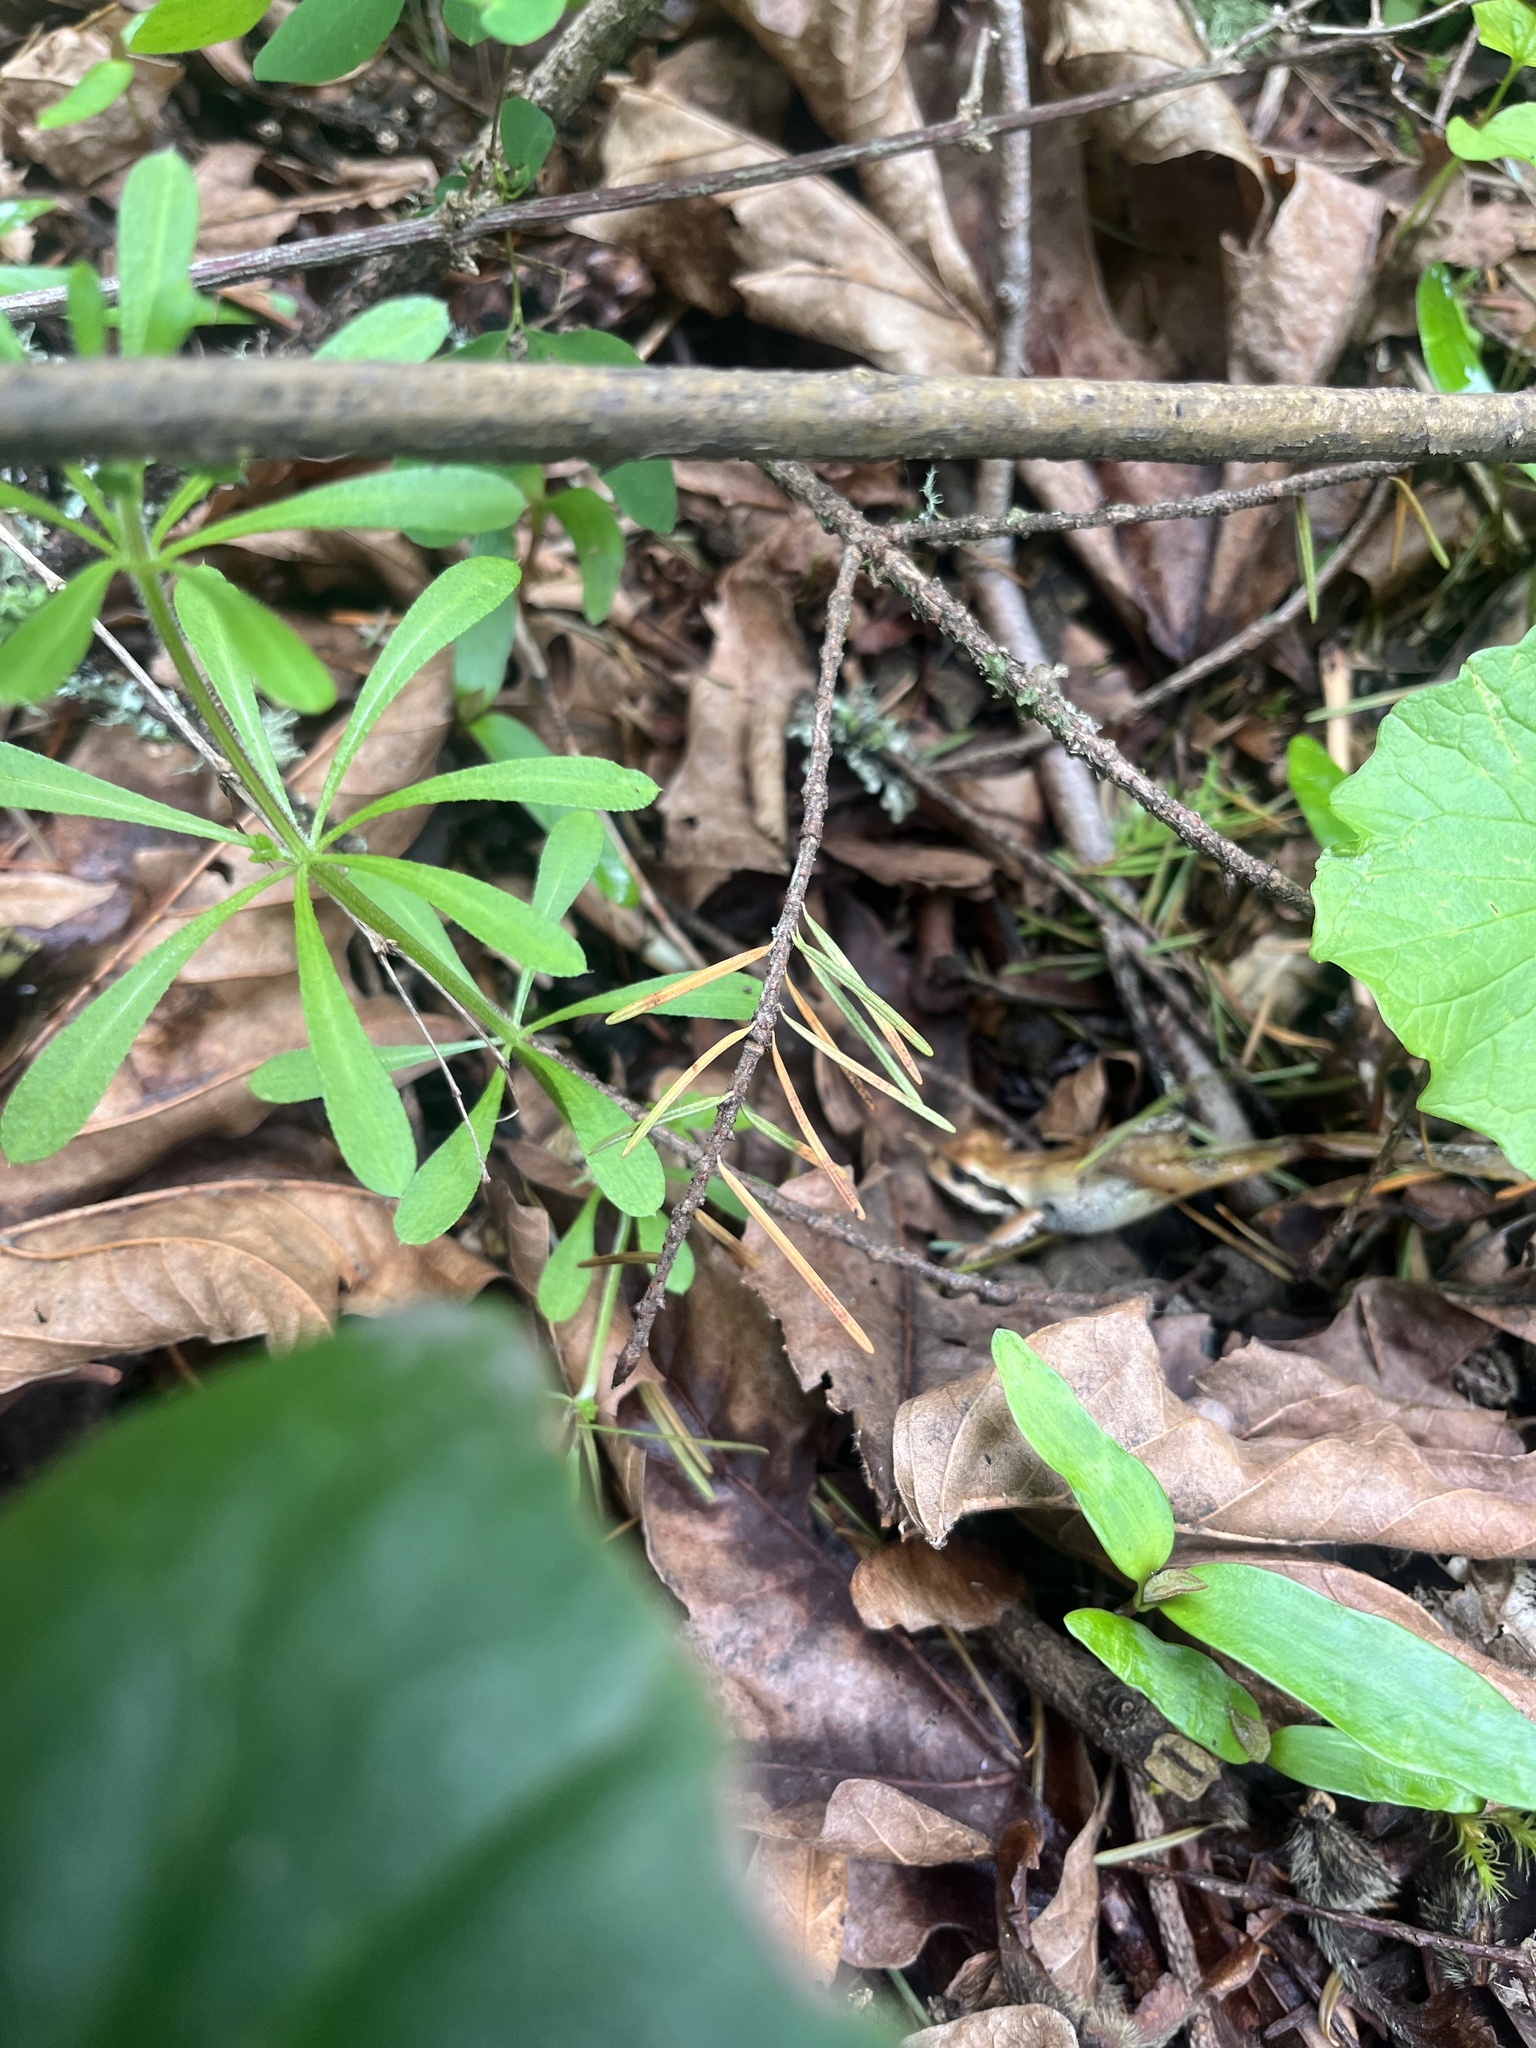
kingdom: Animalia
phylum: Chordata
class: Amphibia
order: Anura
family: Hylidae
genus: Pseudacris
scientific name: Pseudacris regilla
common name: Pacific chorus frog
